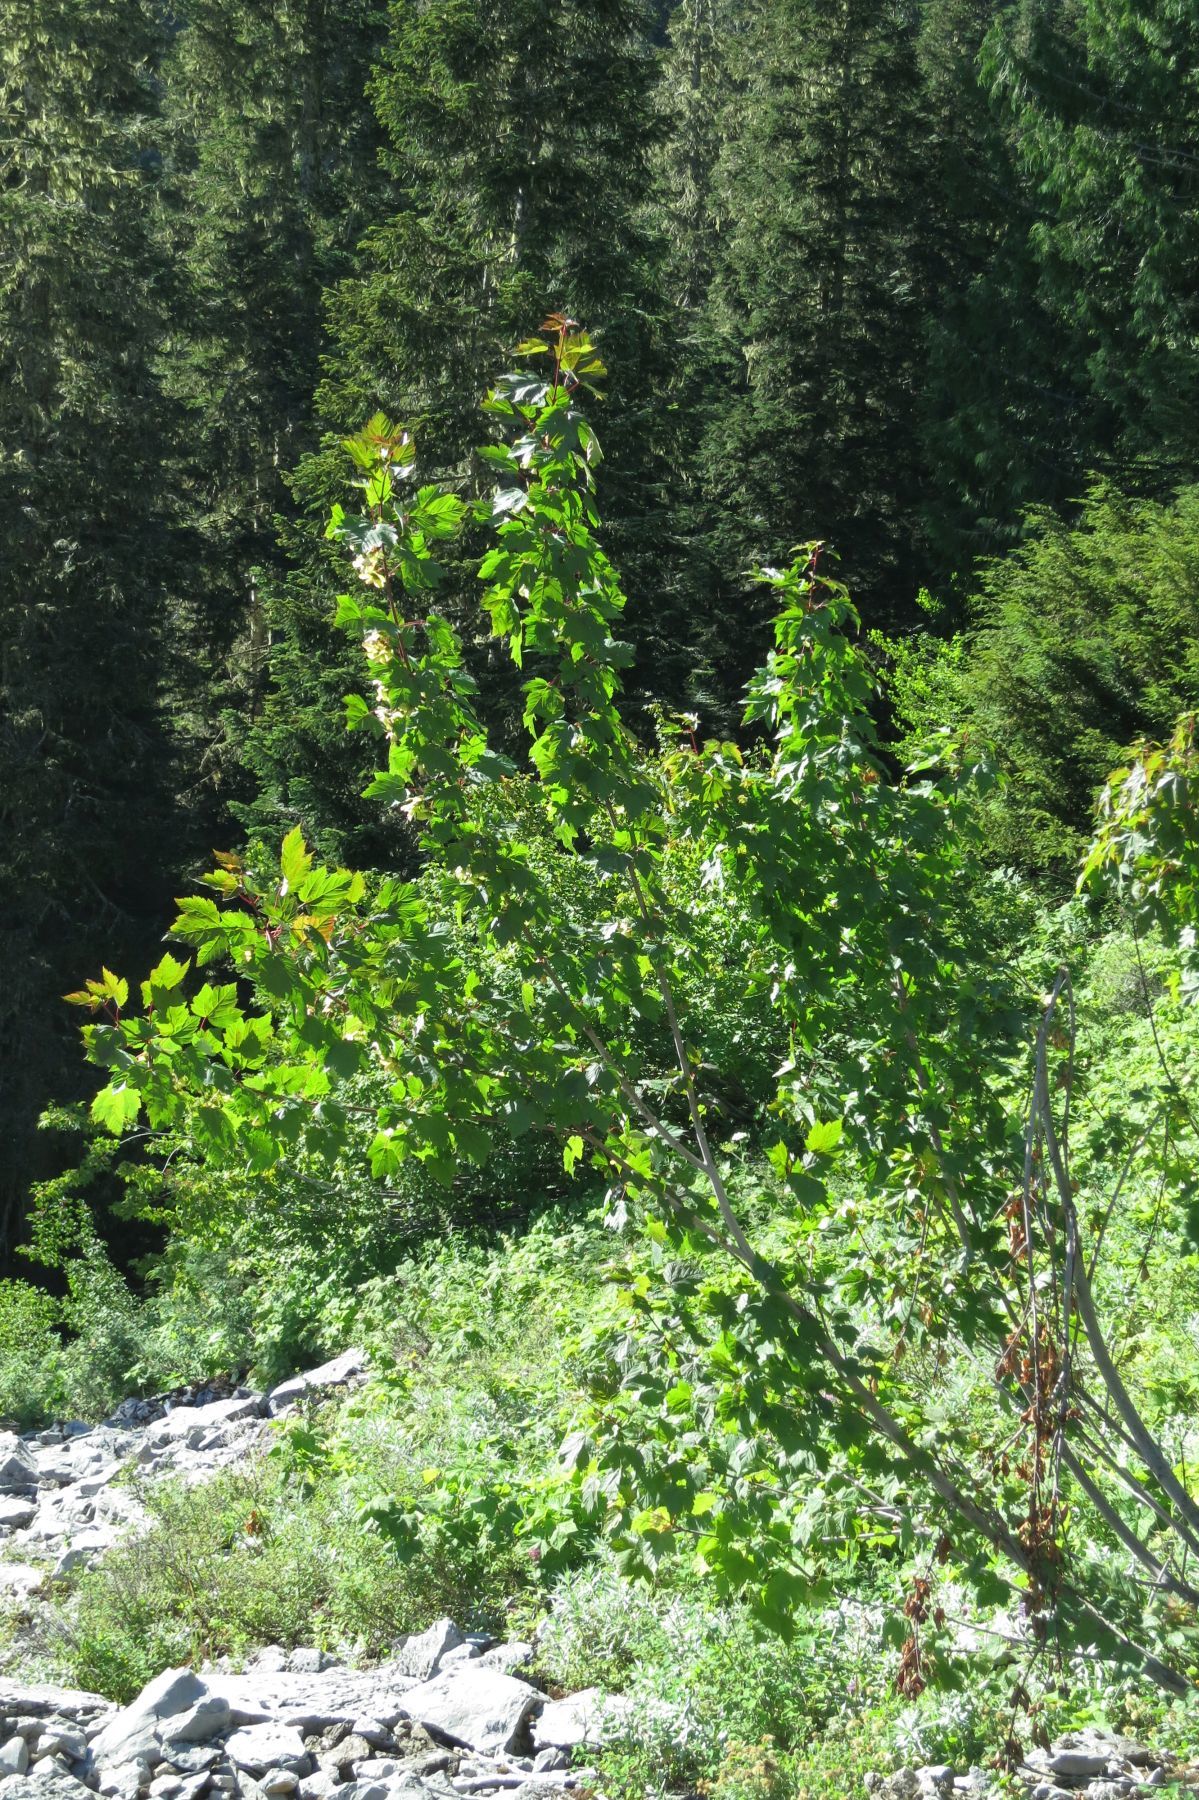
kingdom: Plantae
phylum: Tracheophyta
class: Magnoliopsida
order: Sapindales
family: Sapindaceae
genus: Acer
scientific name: Acer glabrum
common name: Rocky mountain maple
